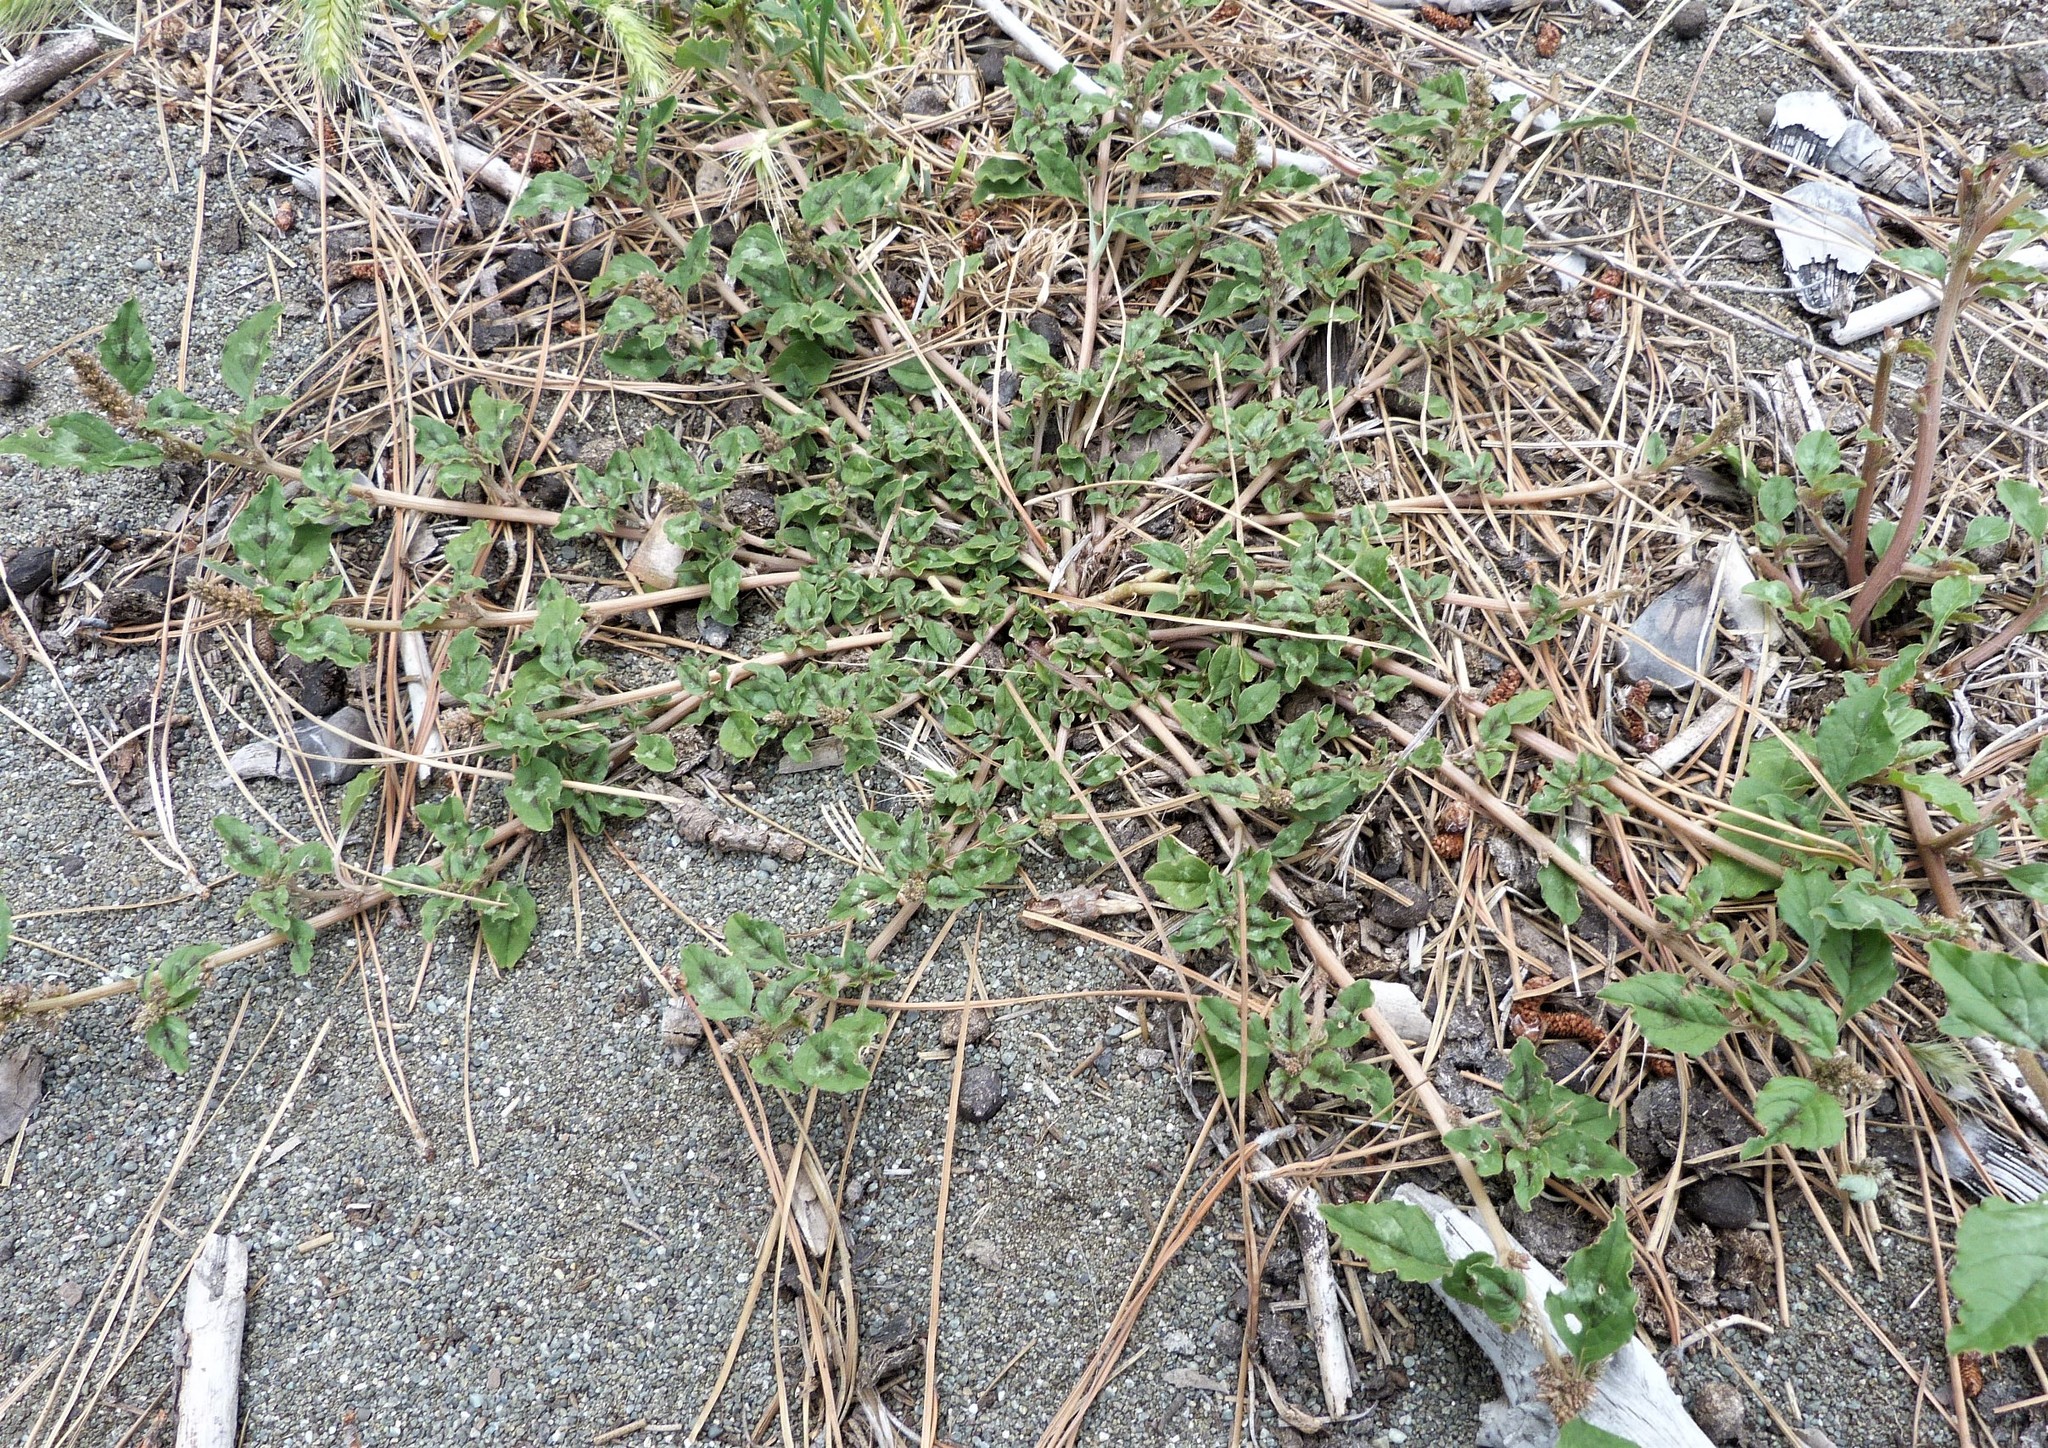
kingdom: Plantae
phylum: Tracheophyta
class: Magnoliopsida
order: Caryophyllales
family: Amaranthaceae
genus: Amaranthus
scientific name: Amaranthus deflexus
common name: Perennial pigweed
